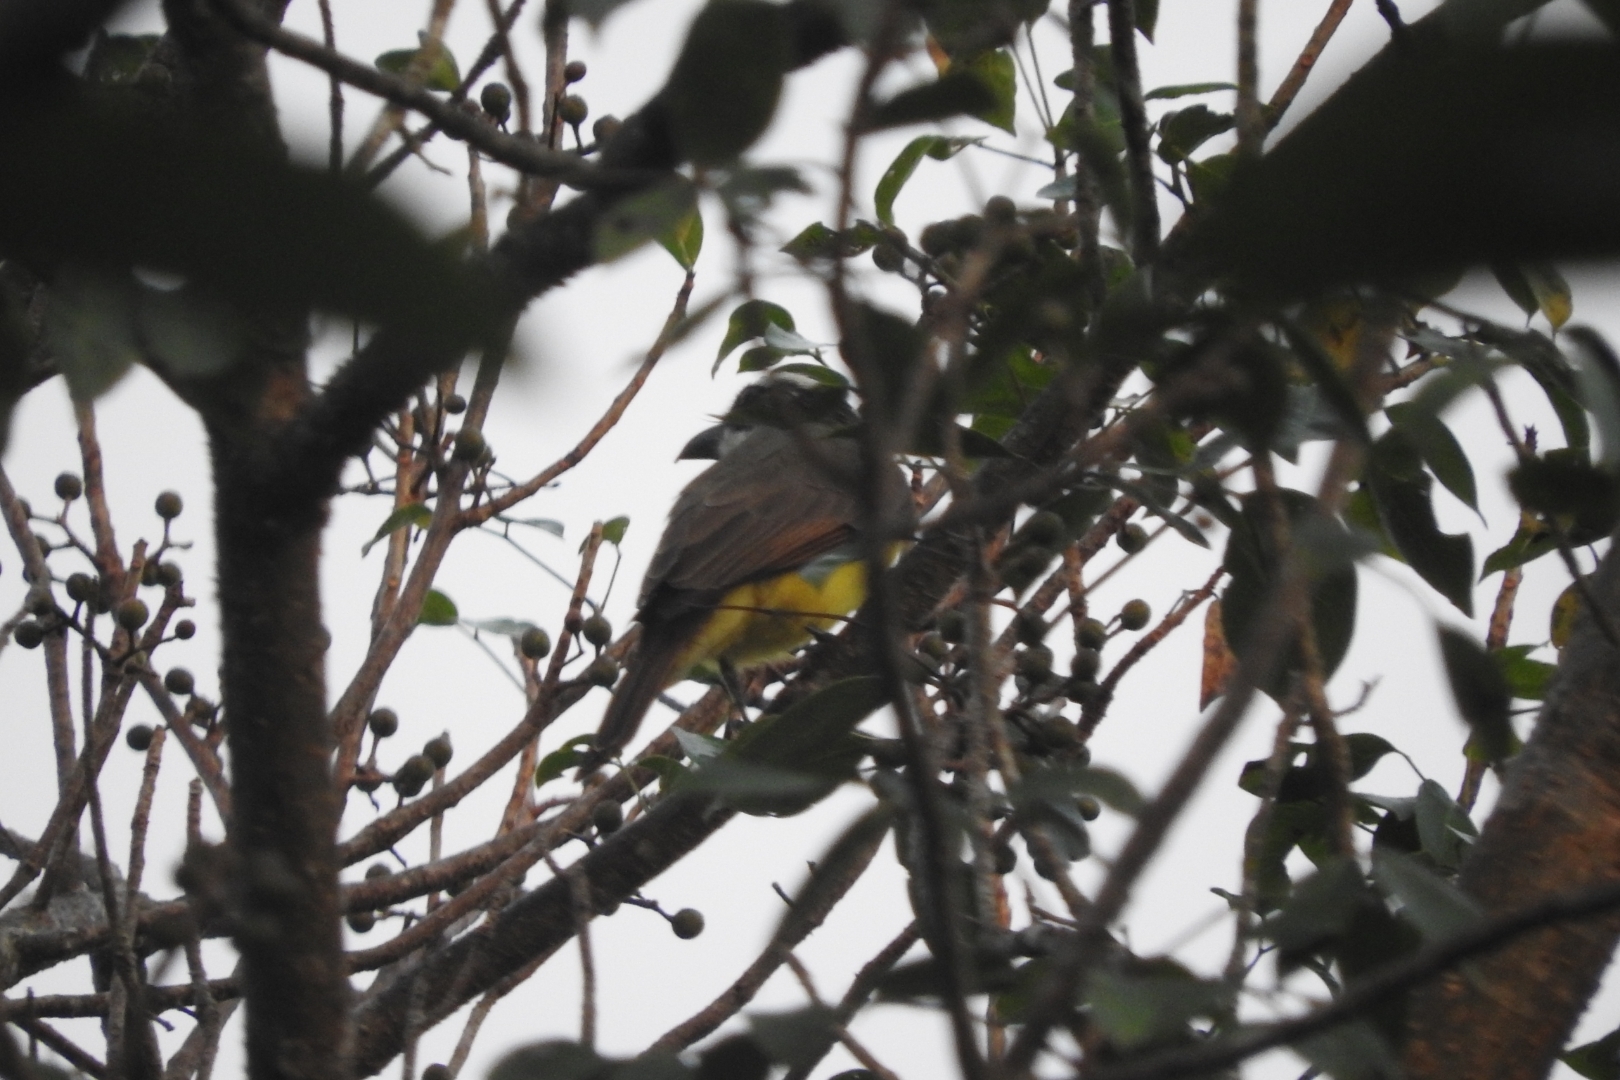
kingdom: Animalia
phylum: Chordata
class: Aves
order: Passeriformes
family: Tyrannidae
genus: Megarynchus
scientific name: Megarynchus pitangua
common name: Boat-billed flycatcher
